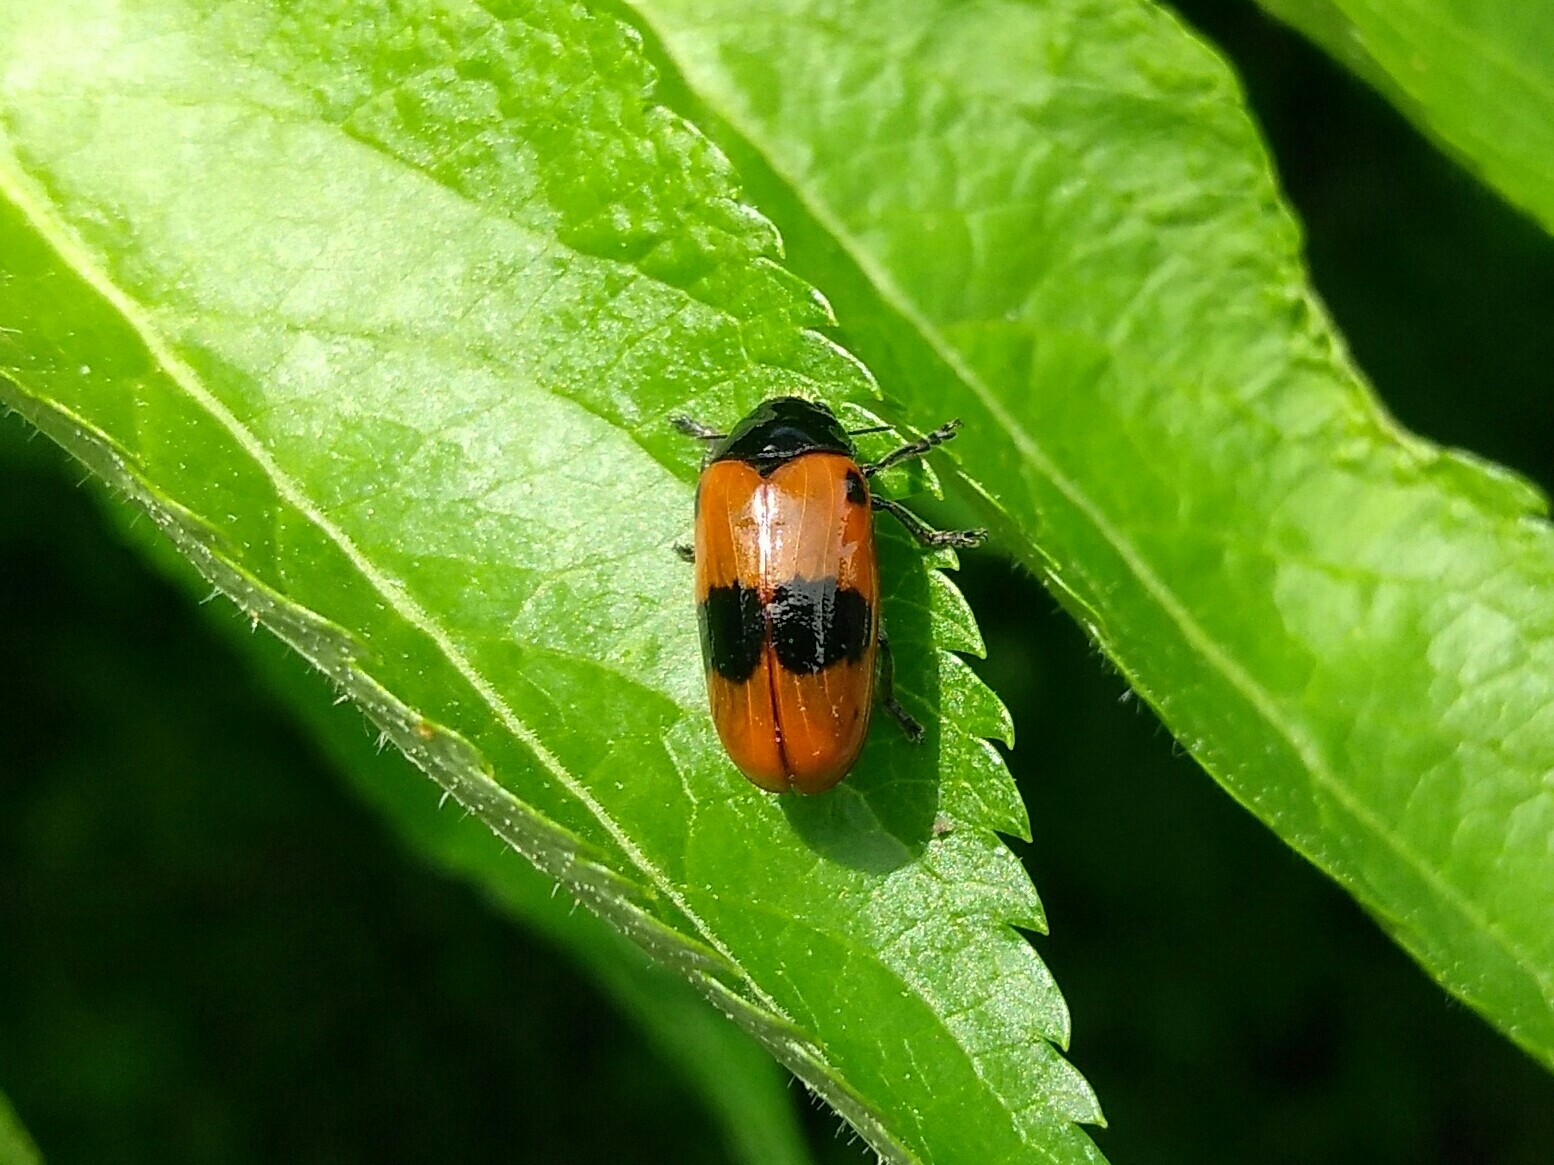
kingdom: Animalia
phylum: Arthropoda
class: Insecta
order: Coleoptera
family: Chrysomelidae
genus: Clytra
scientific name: Clytra laeviuscula
